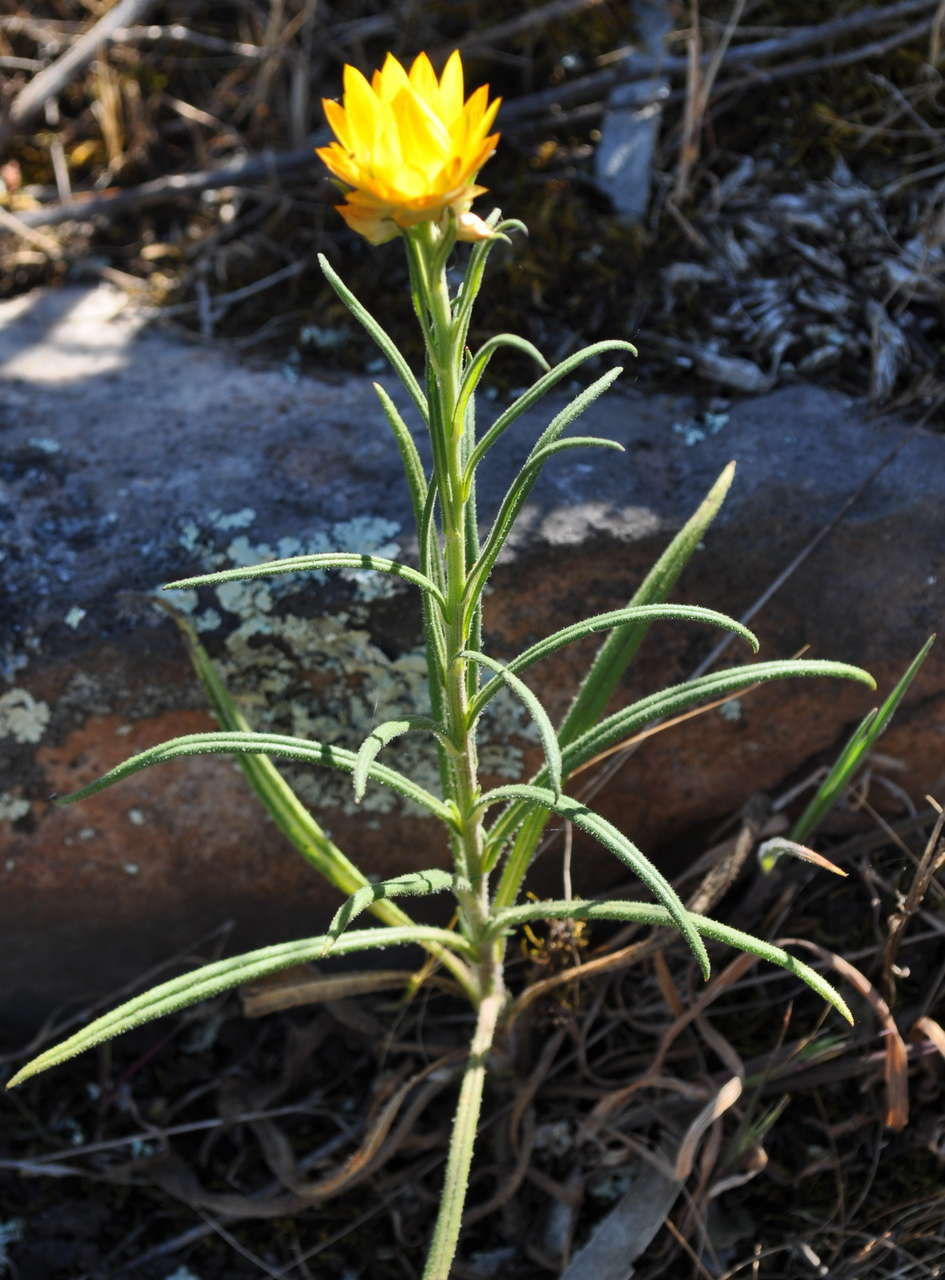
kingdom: Plantae
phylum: Tracheophyta
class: Magnoliopsida
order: Asterales
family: Asteraceae
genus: Xerochrysum
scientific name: Xerochrysum viscosum
